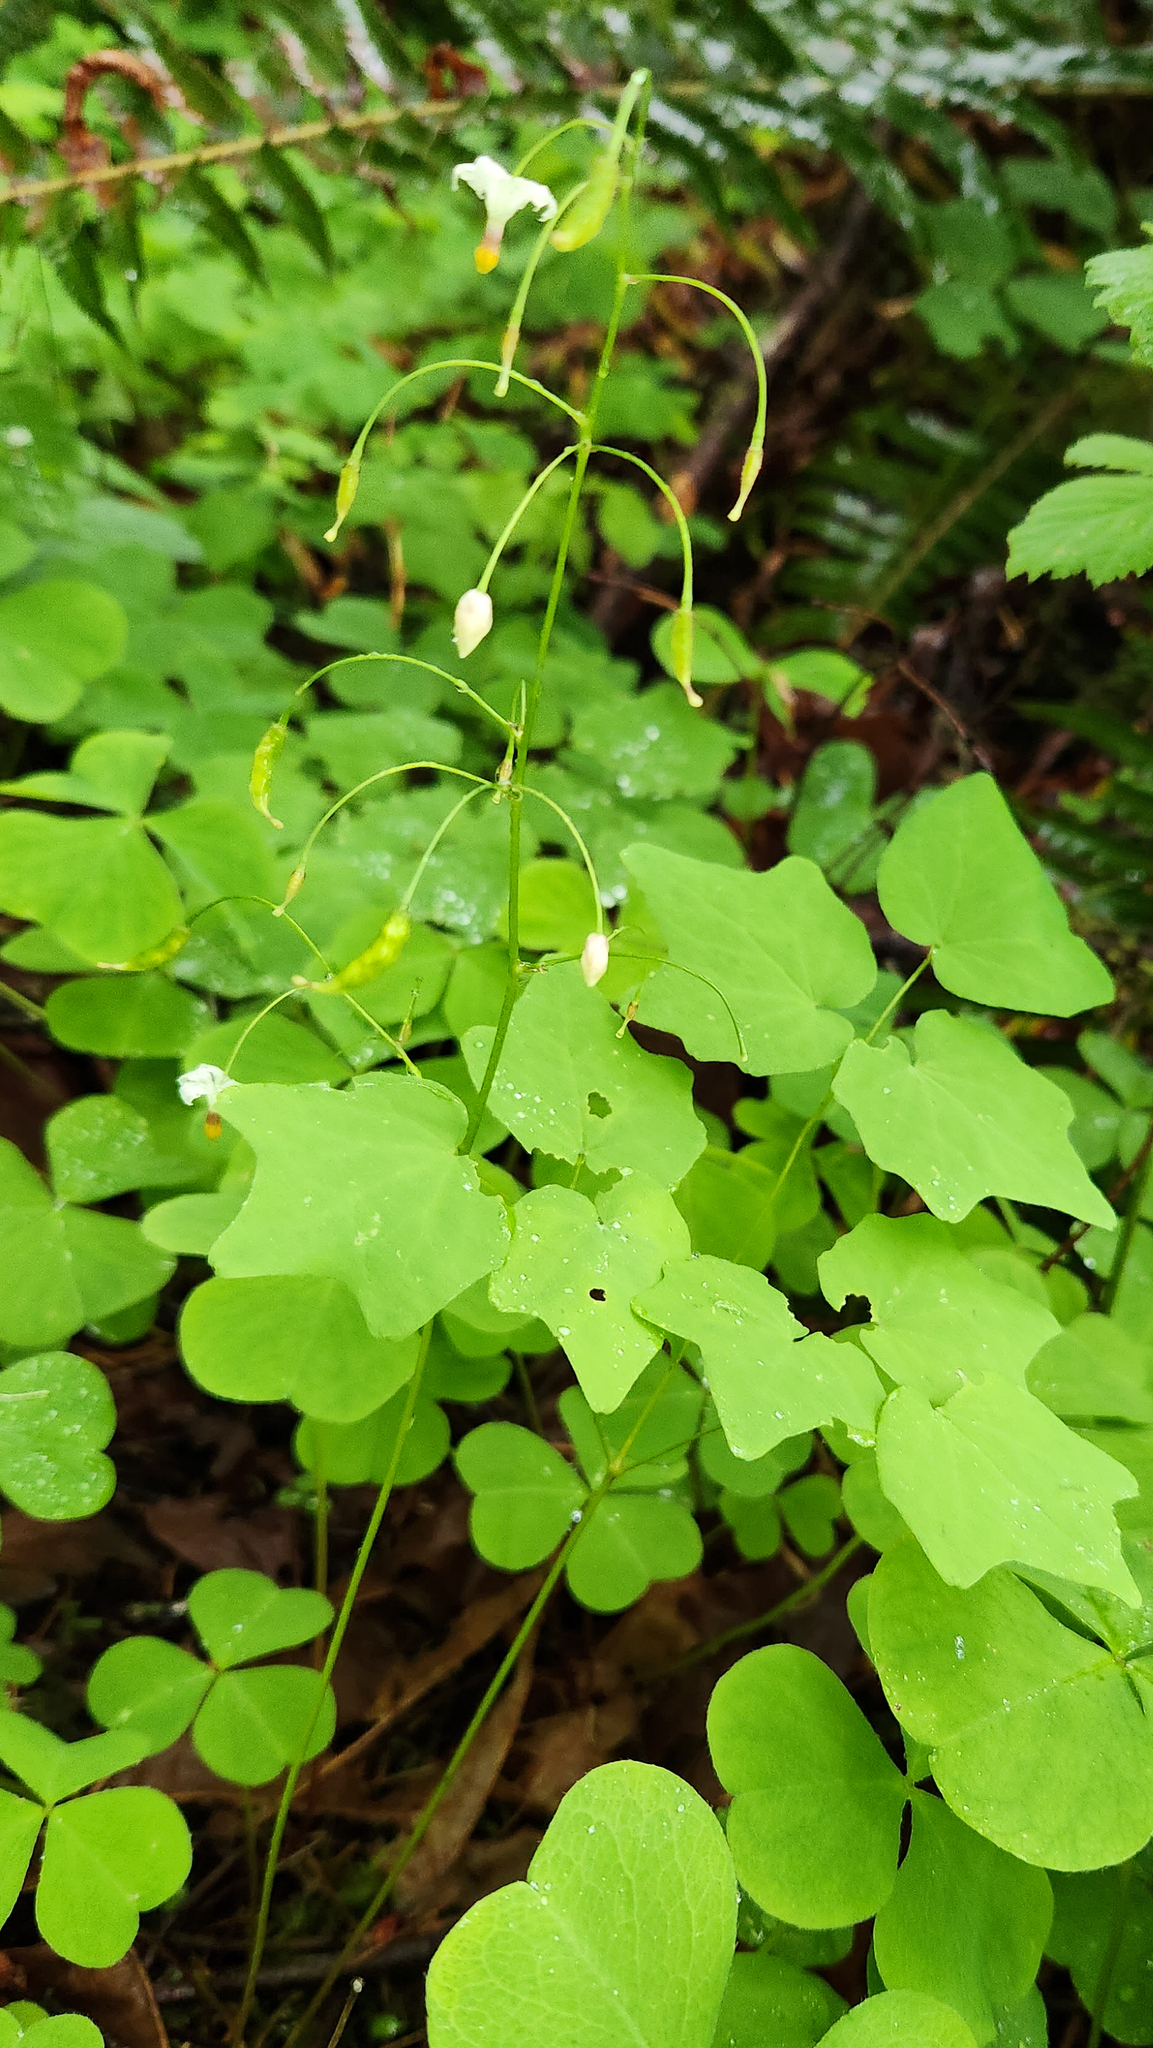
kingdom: Plantae
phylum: Tracheophyta
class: Magnoliopsida
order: Ranunculales
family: Berberidaceae
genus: Vancouveria
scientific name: Vancouveria hexandra
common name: Northern inside-out-flower
